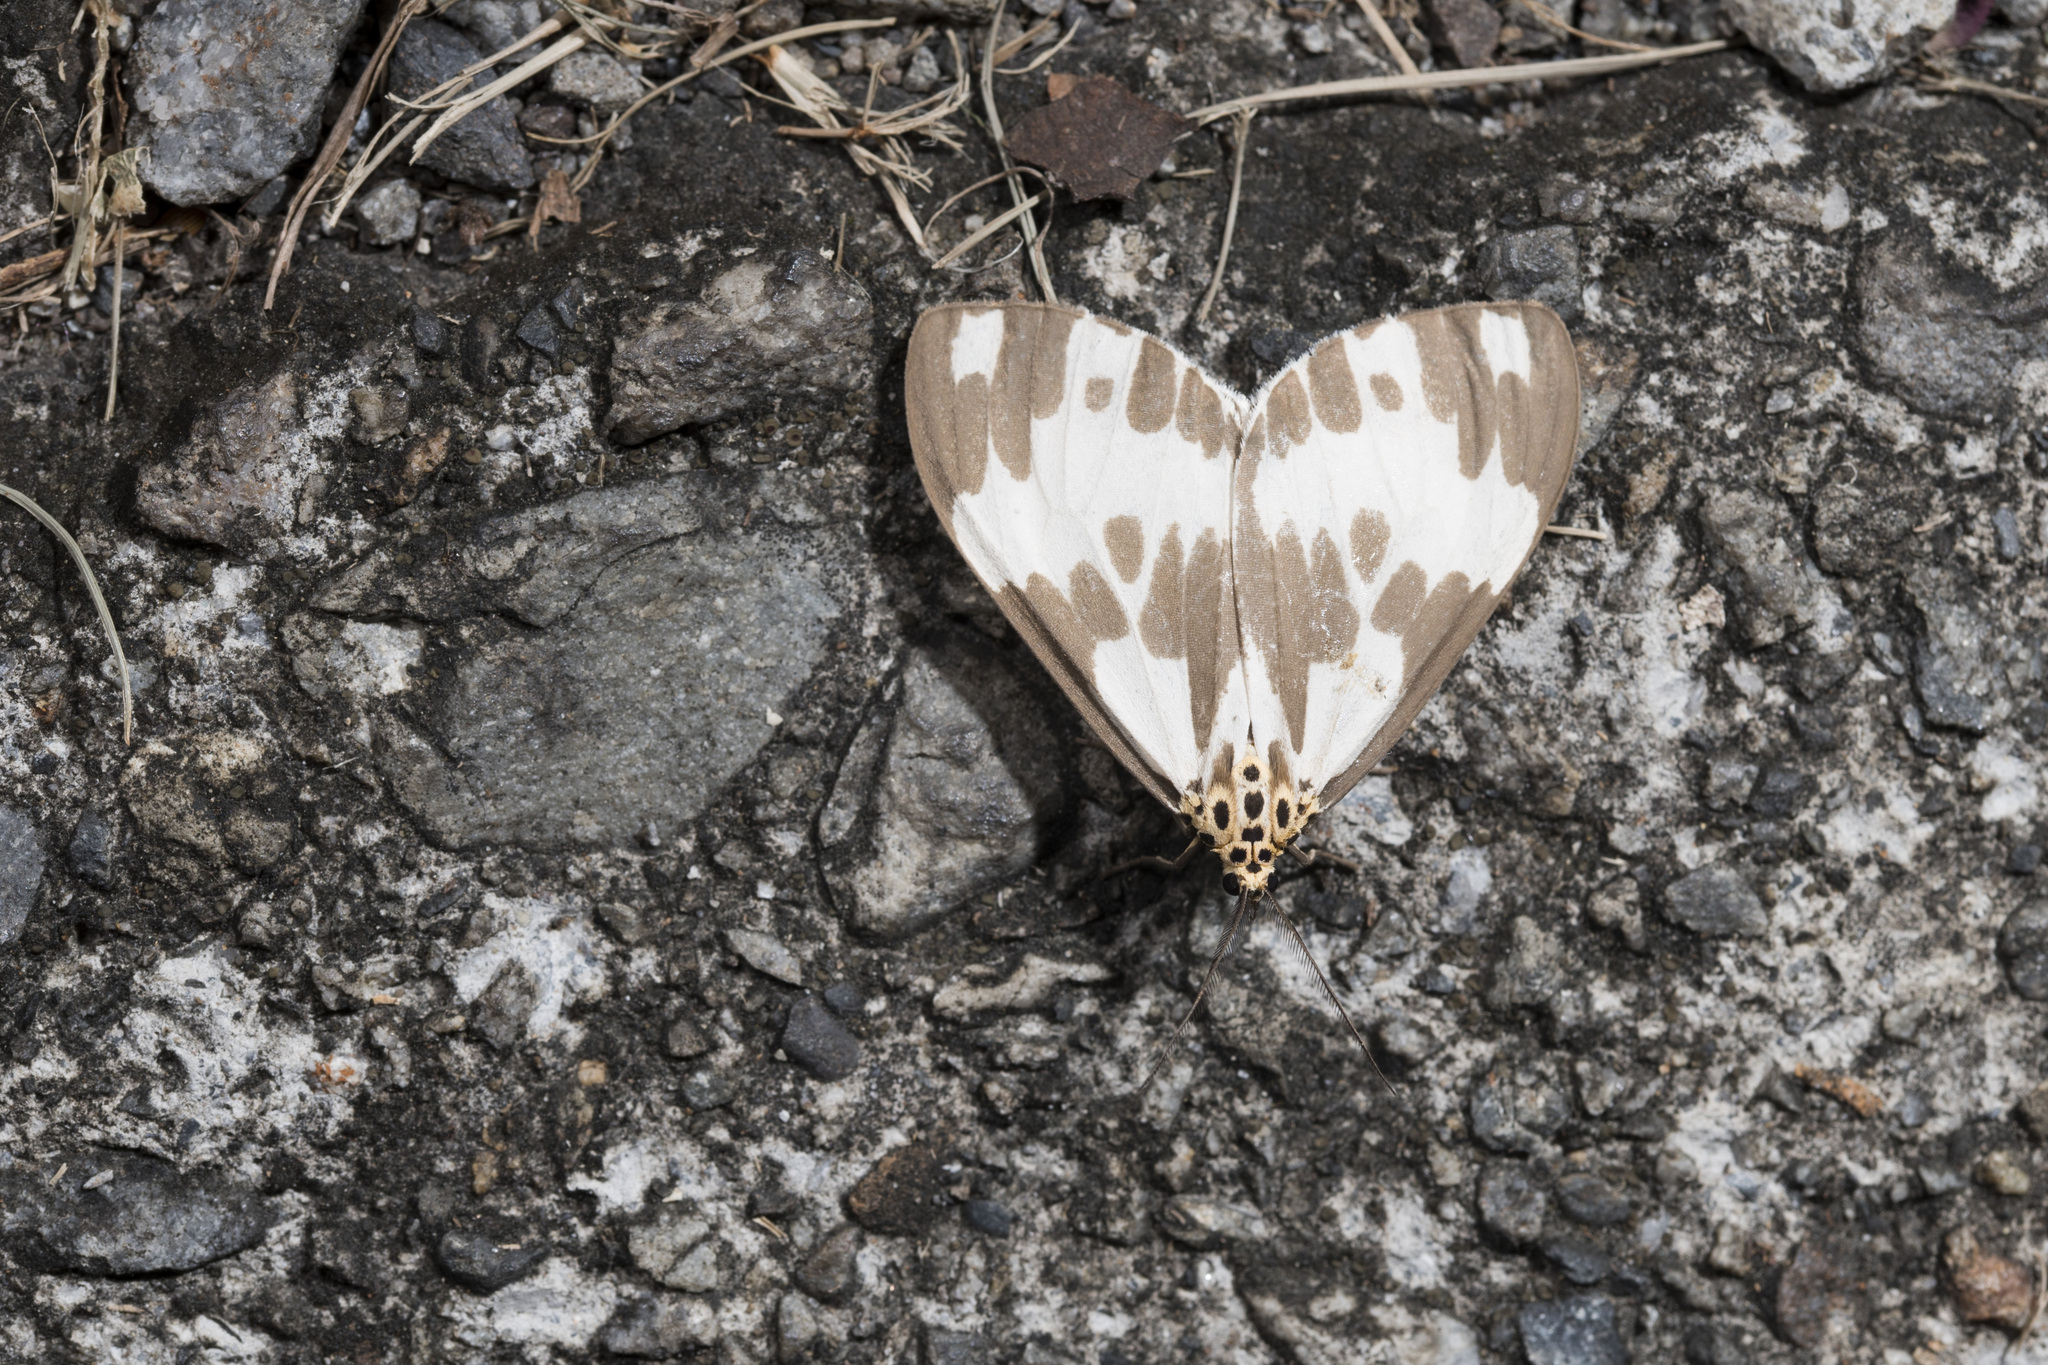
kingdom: Animalia
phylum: Arthropoda
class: Insecta
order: Lepidoptera
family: Erebidae
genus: Nyctemera
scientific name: Nyctemera carissima
